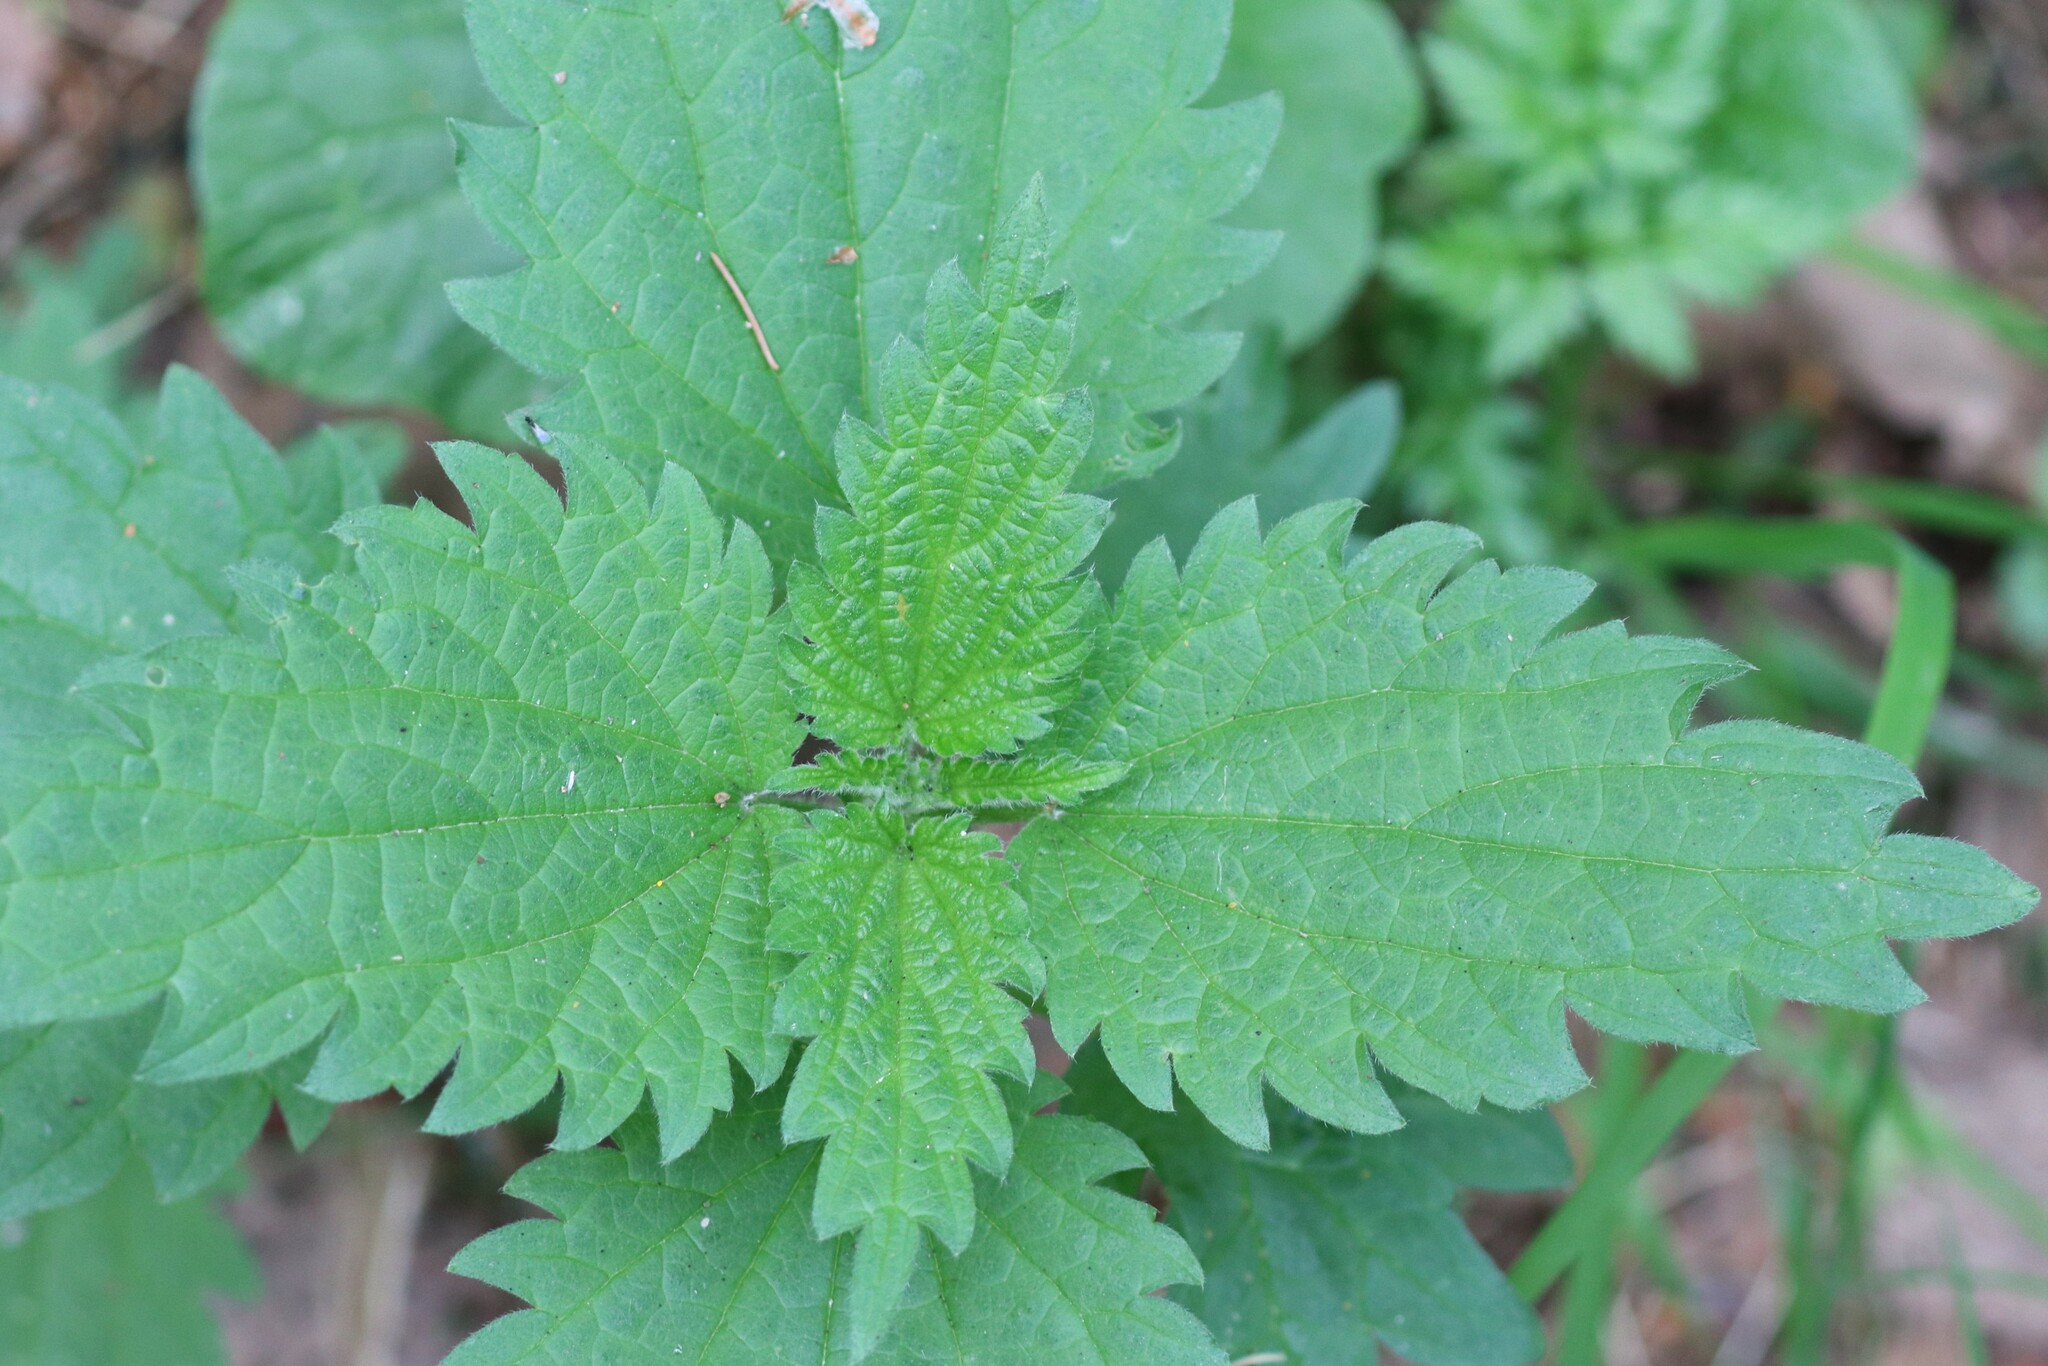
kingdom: Plantae
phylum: Tracheophyta
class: Magnoliopsida
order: Rosales
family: Urticaceae
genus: Urtica
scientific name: Urtica dioica
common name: Common nettle
